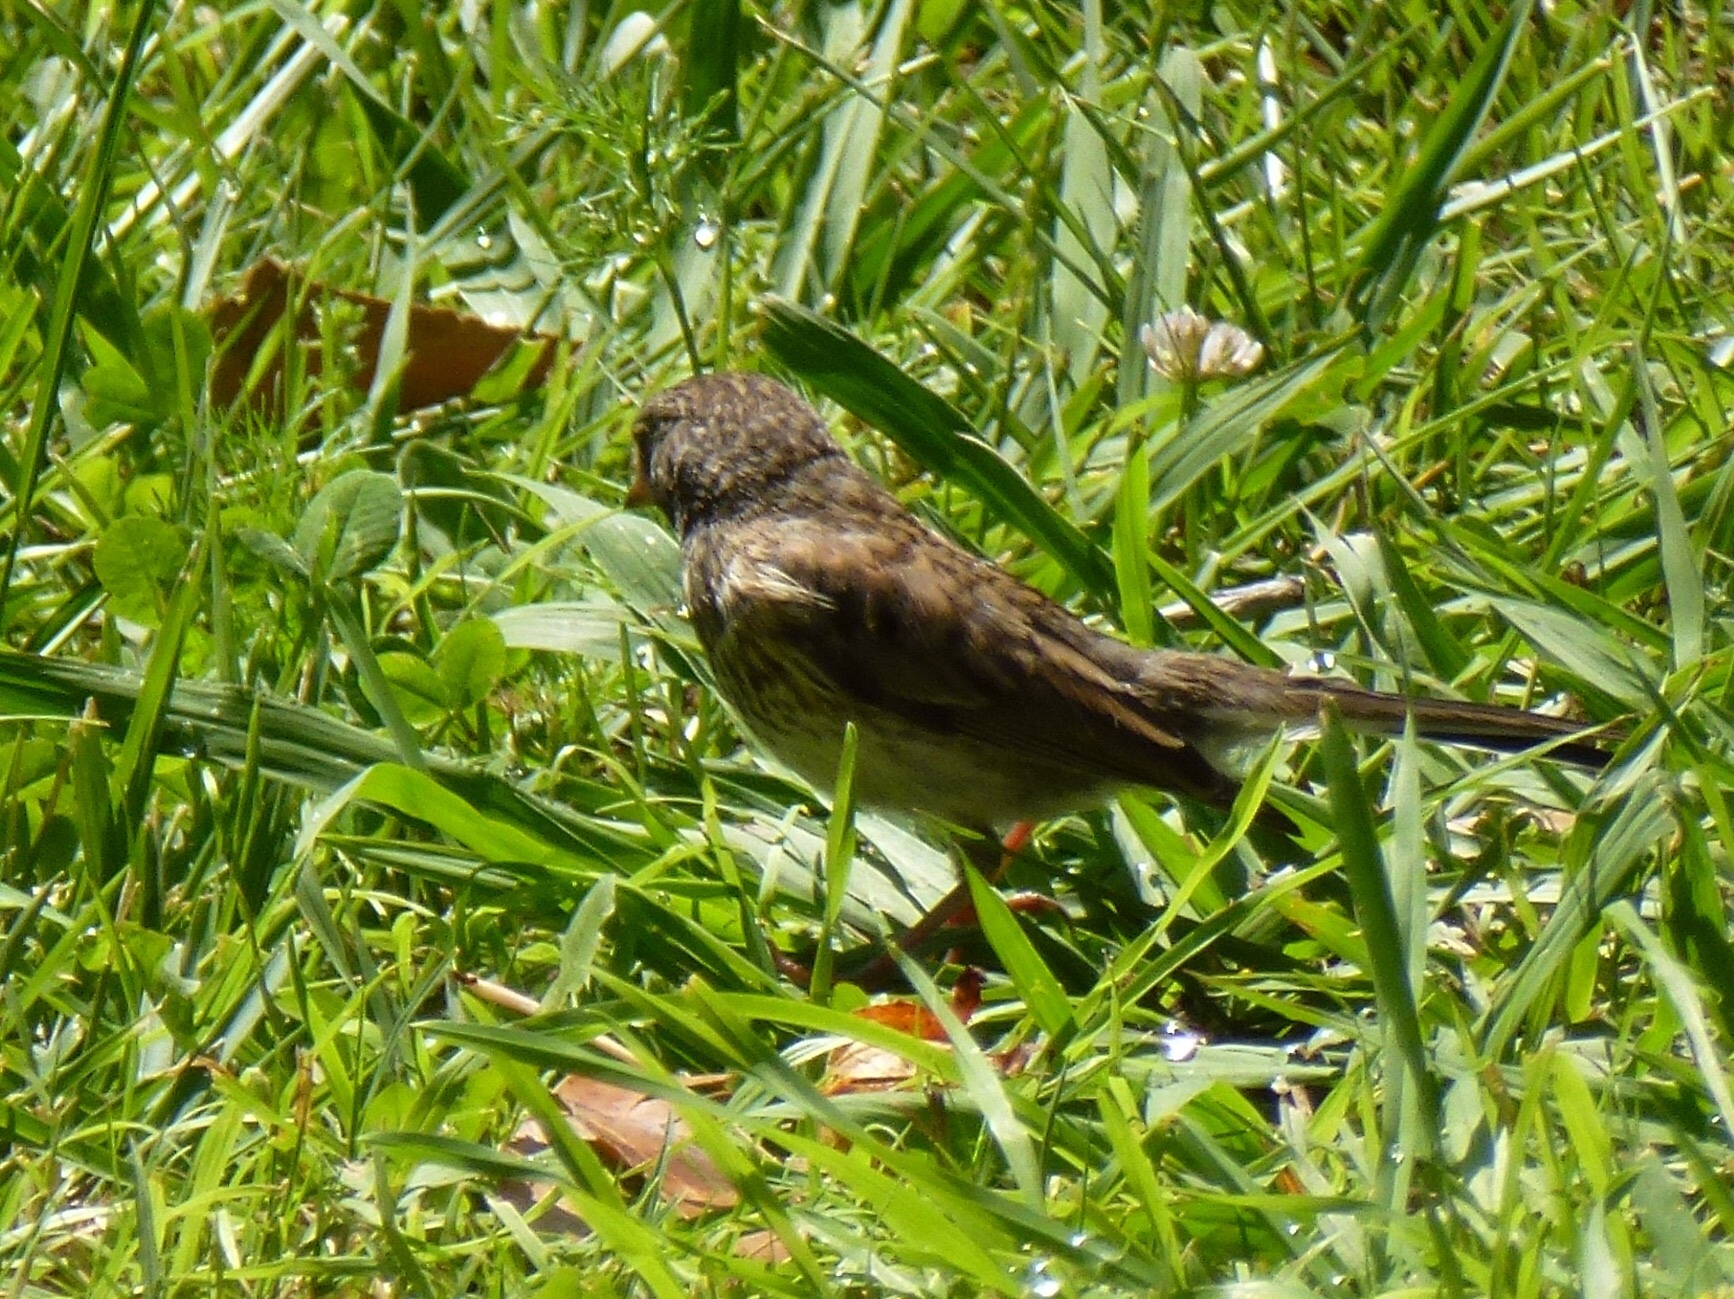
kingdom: Animalia
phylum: Chordata
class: Aves
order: Passeriformes
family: Passerellidae
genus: Junco
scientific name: Junco hyemalis
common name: Dark-eyed junco
